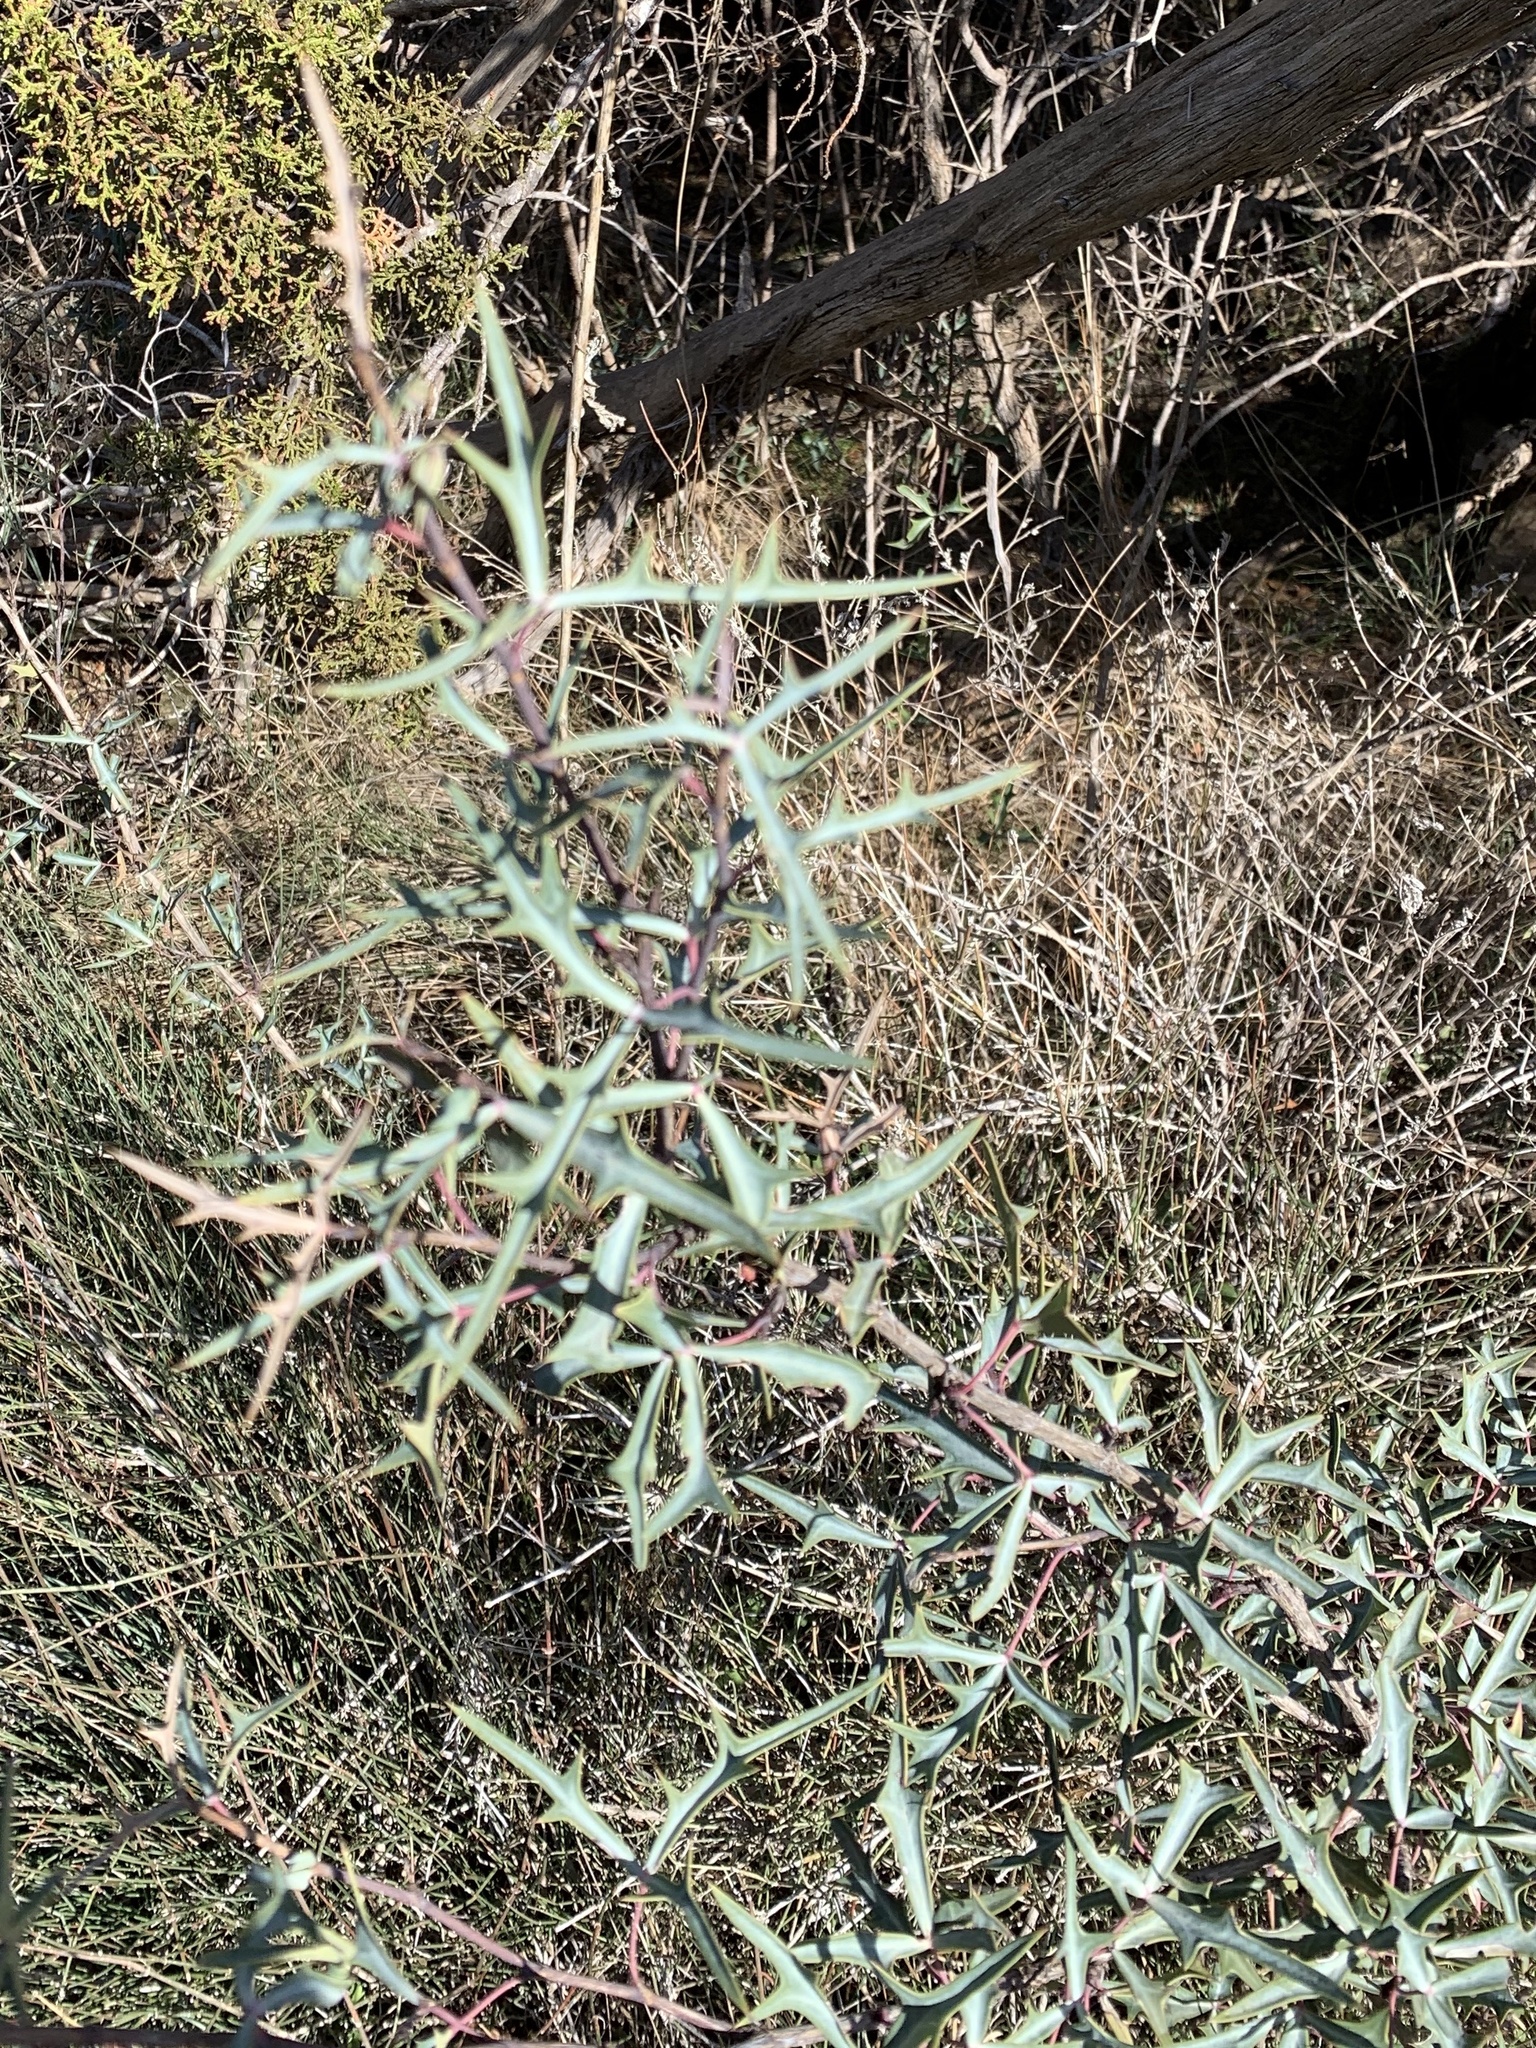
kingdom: Plantae
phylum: Tracheophyta
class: Magnoliopsida
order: Ranunculales
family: Berberidaceae
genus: Alloberberis
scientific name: Alloberberis trifoliolata
